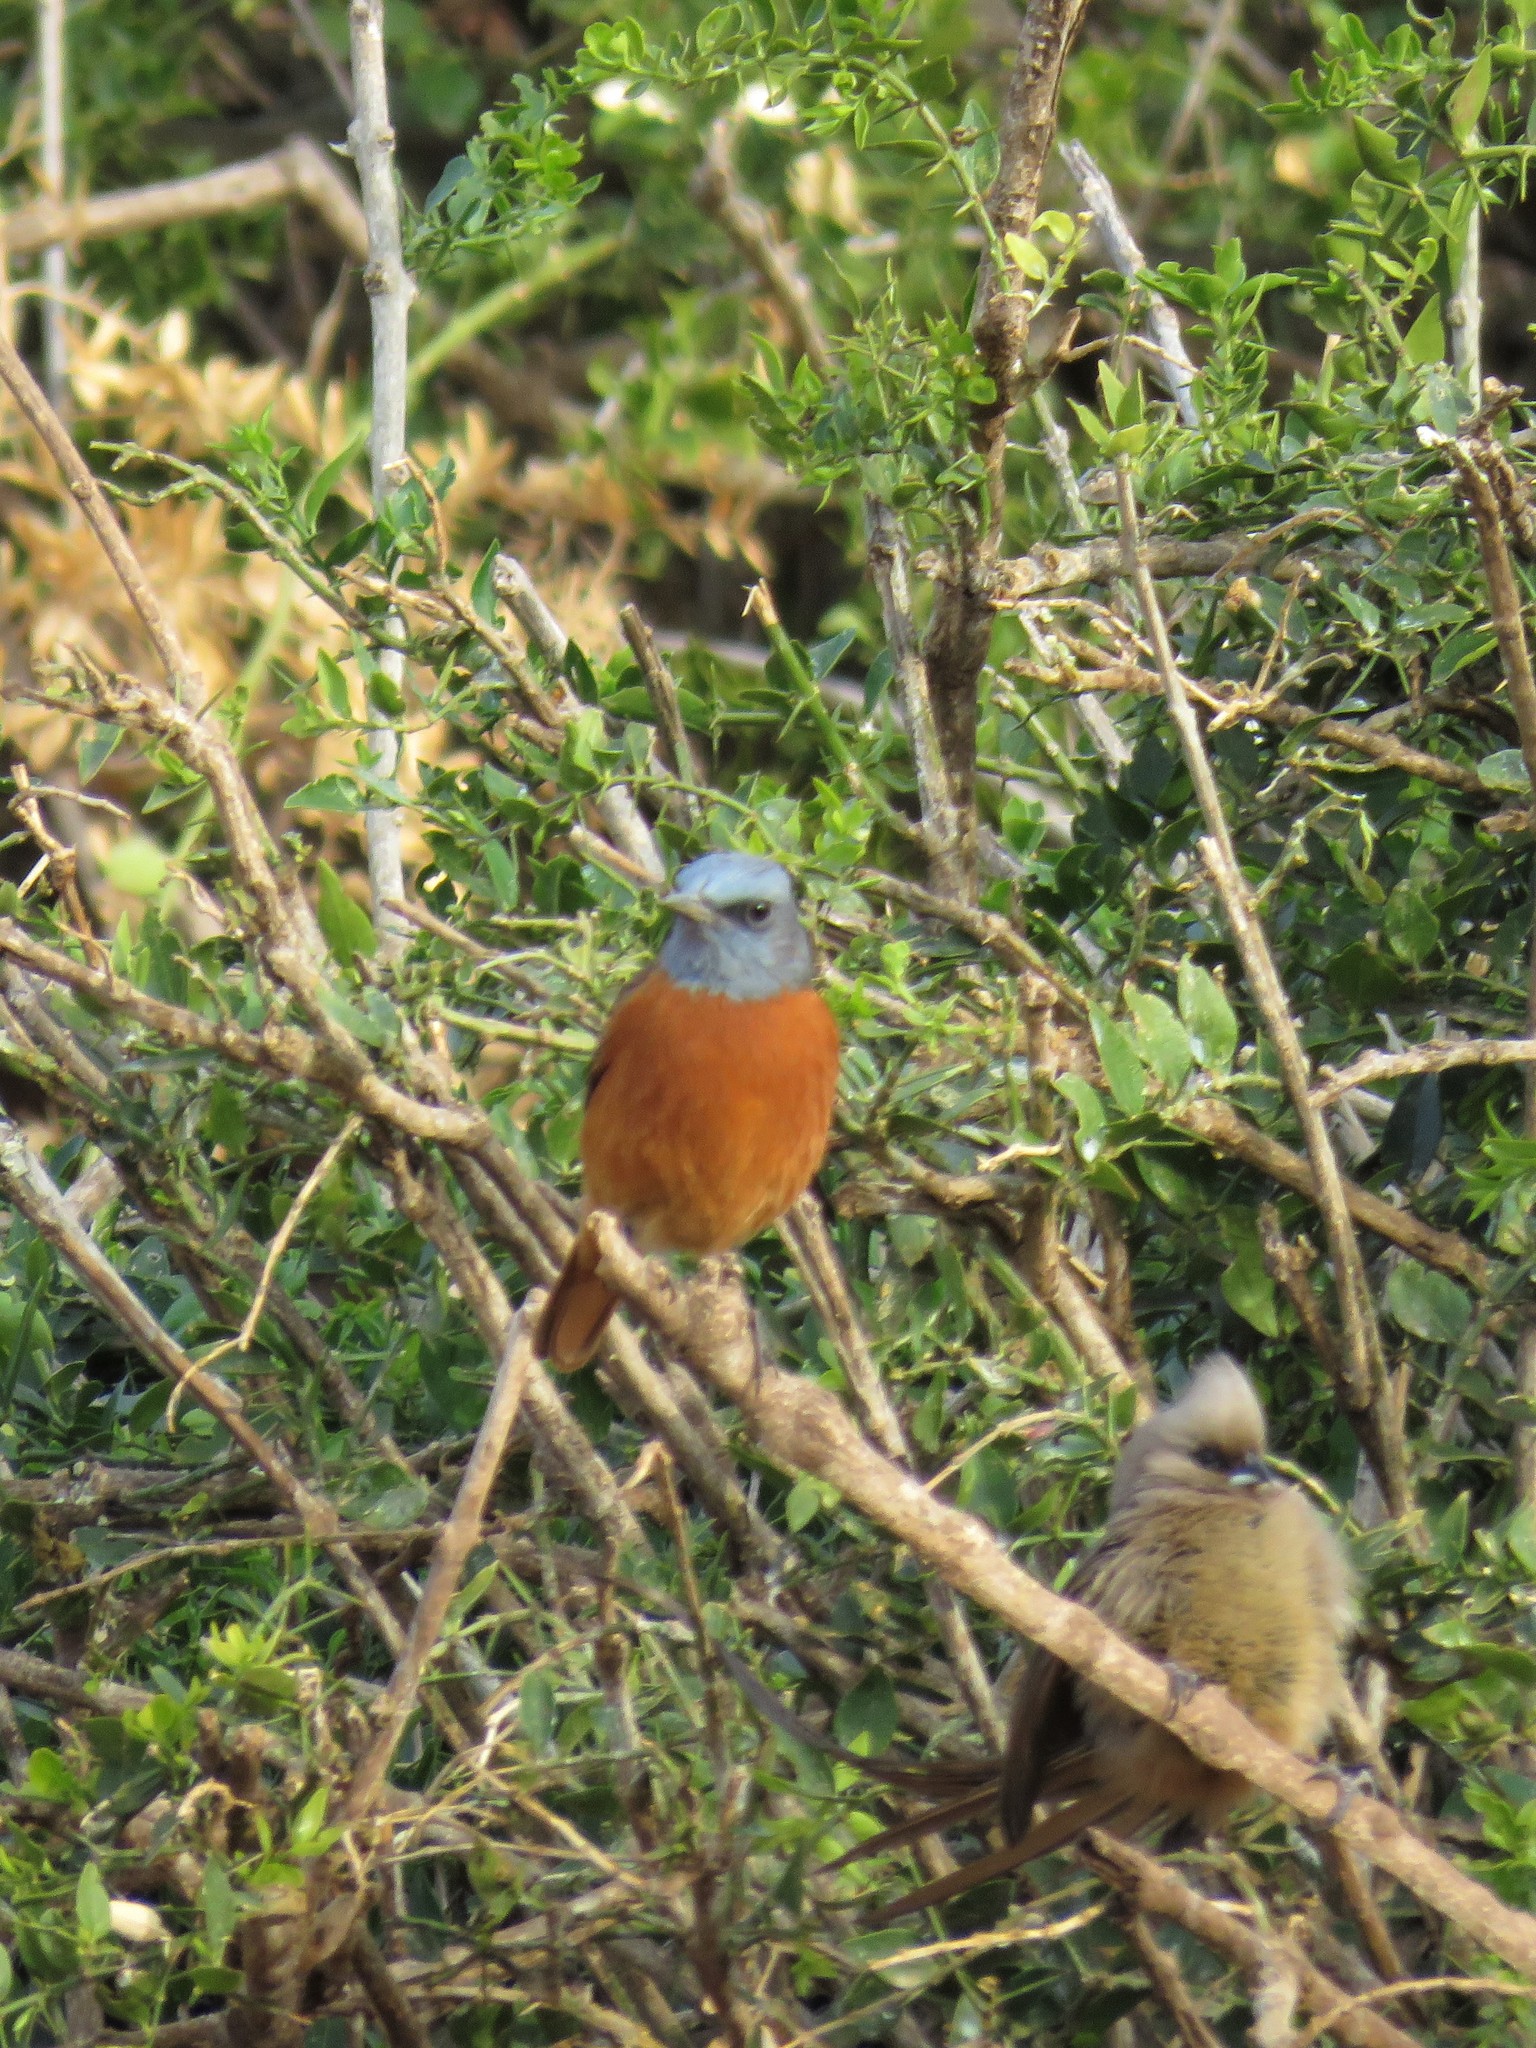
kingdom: Animalia
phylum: Chordata
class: Aves
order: Passeriformes
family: Muscicapidae
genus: Monticola
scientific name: Monticola rupestris
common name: Cape rock thrush
